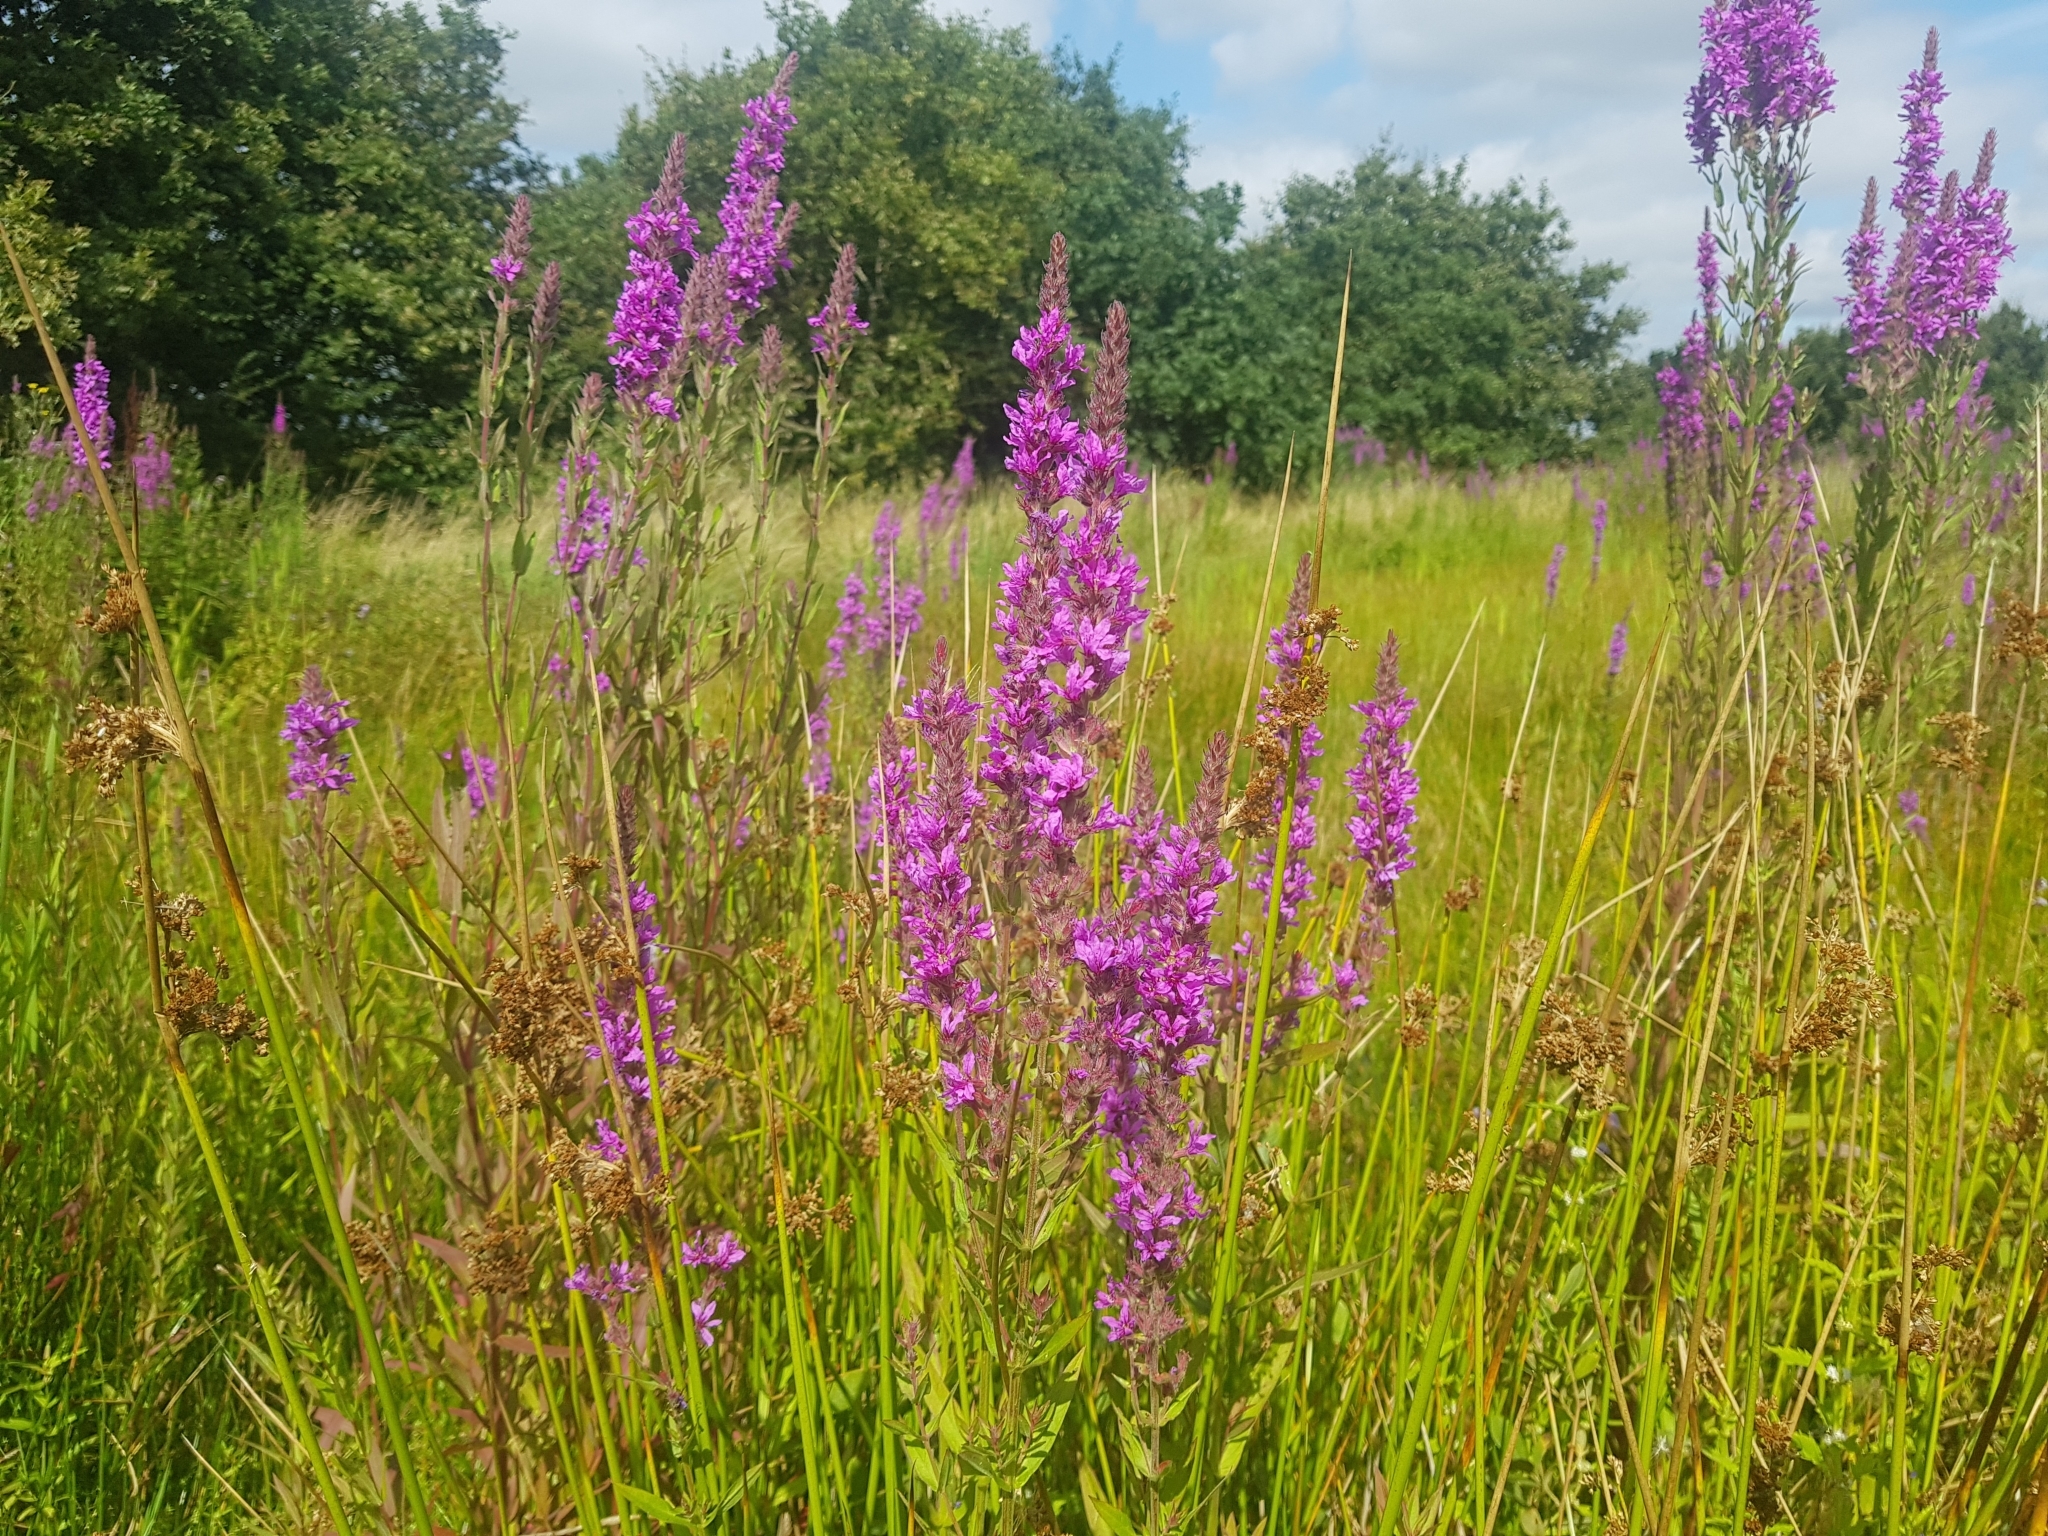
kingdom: Plantae
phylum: Tracheophyta
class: Magnoliopsida
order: Myrtales
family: Lythraceae
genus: Lythrum
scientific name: Lythrum salicaria
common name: Purple loosestrife
